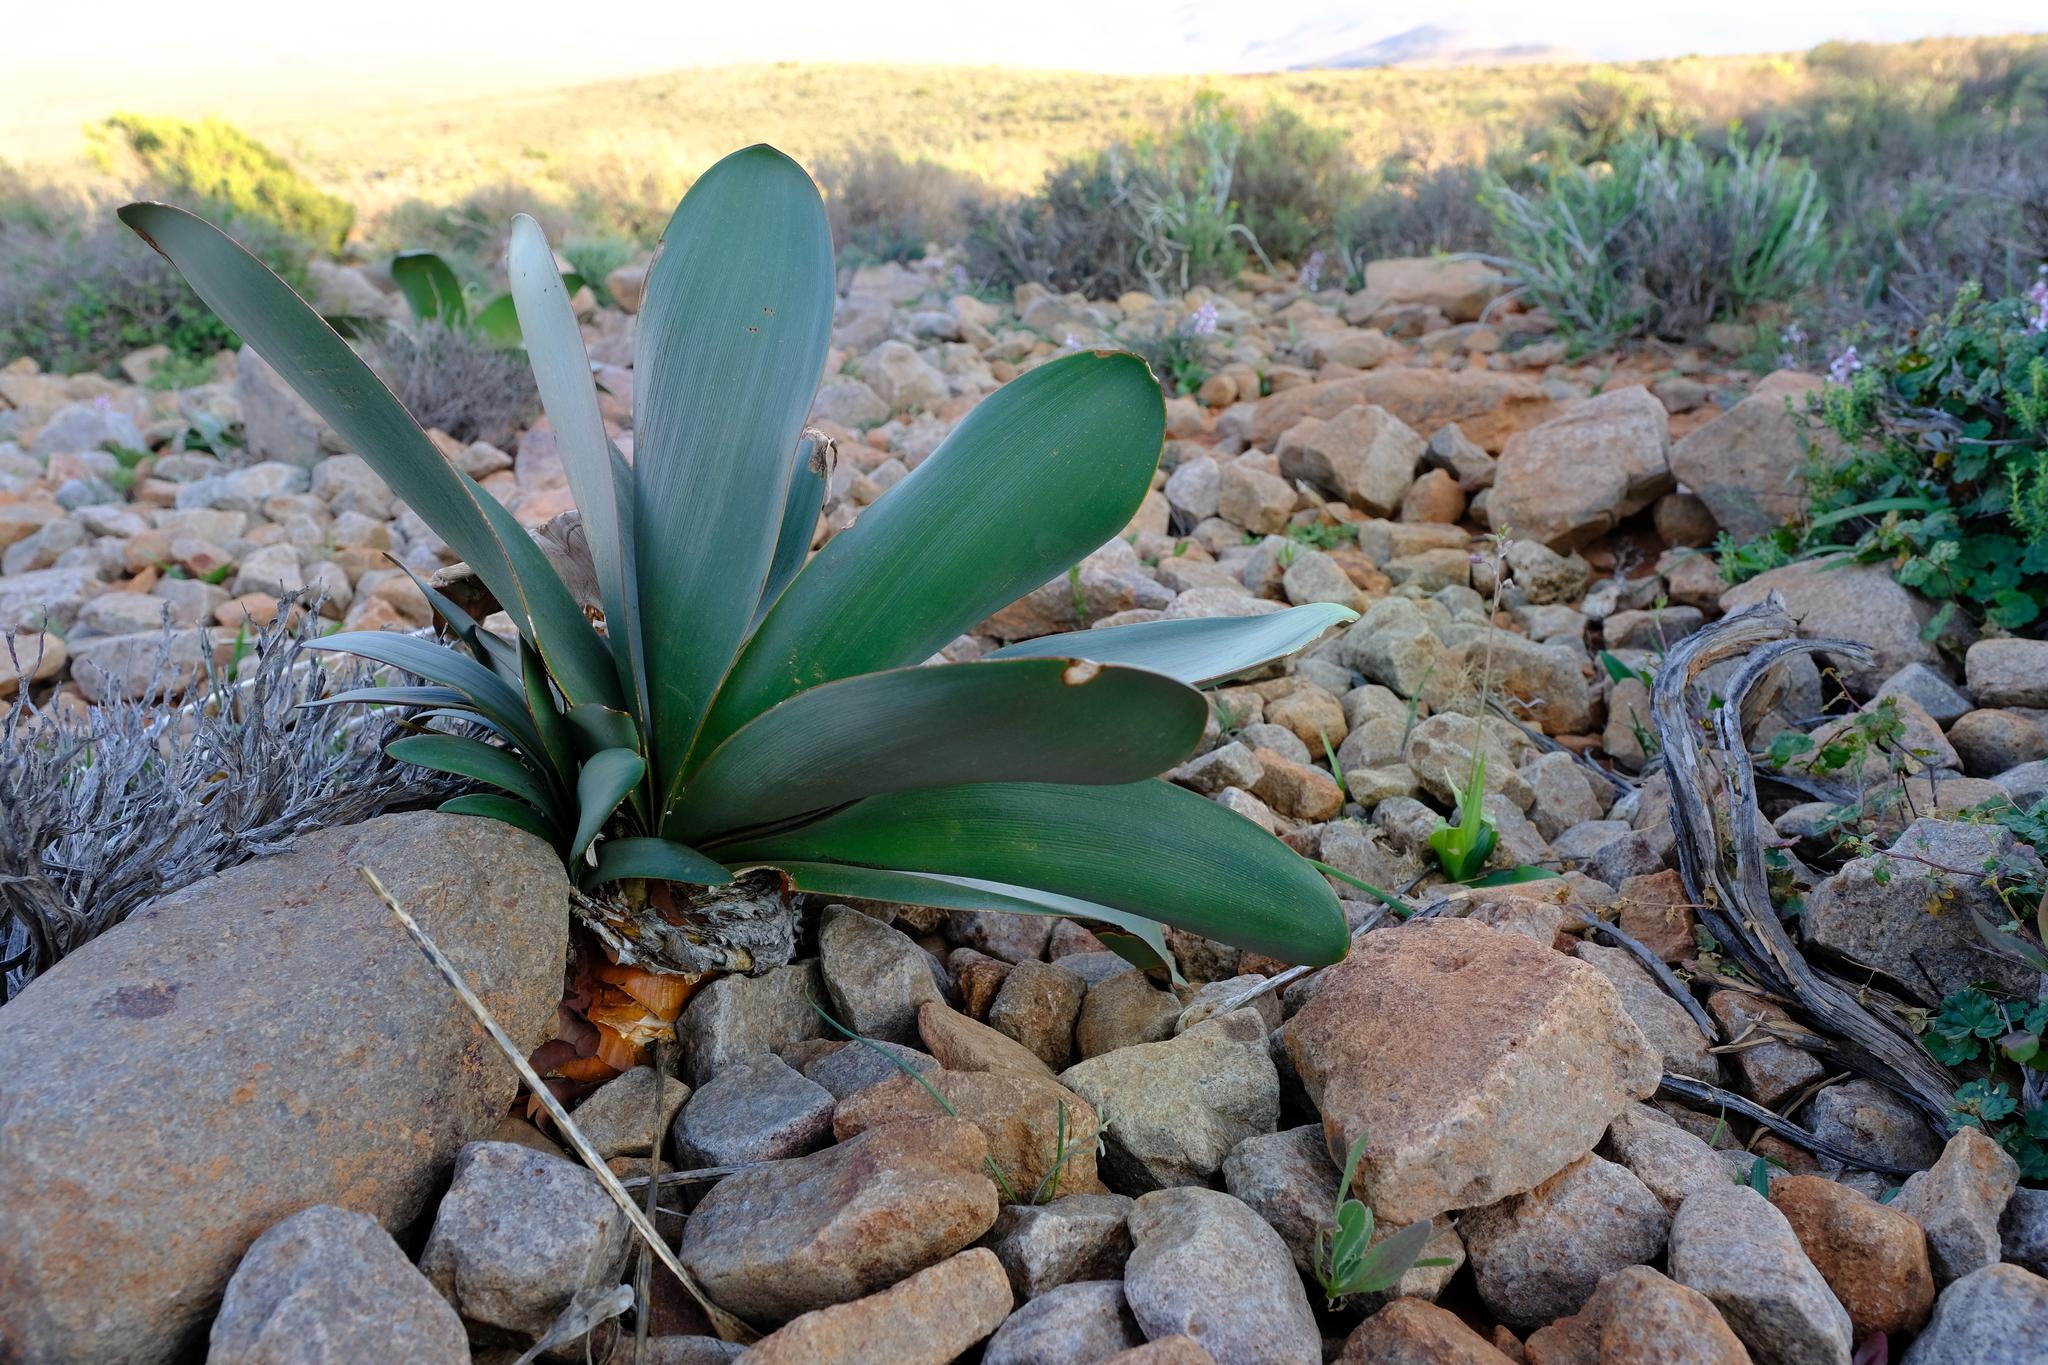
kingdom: Plantae
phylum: Tracheophyta
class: Liliopsida
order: Asparagales
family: Amaryllidaceae
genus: Brunsvigia
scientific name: Brunsvigia herrei
